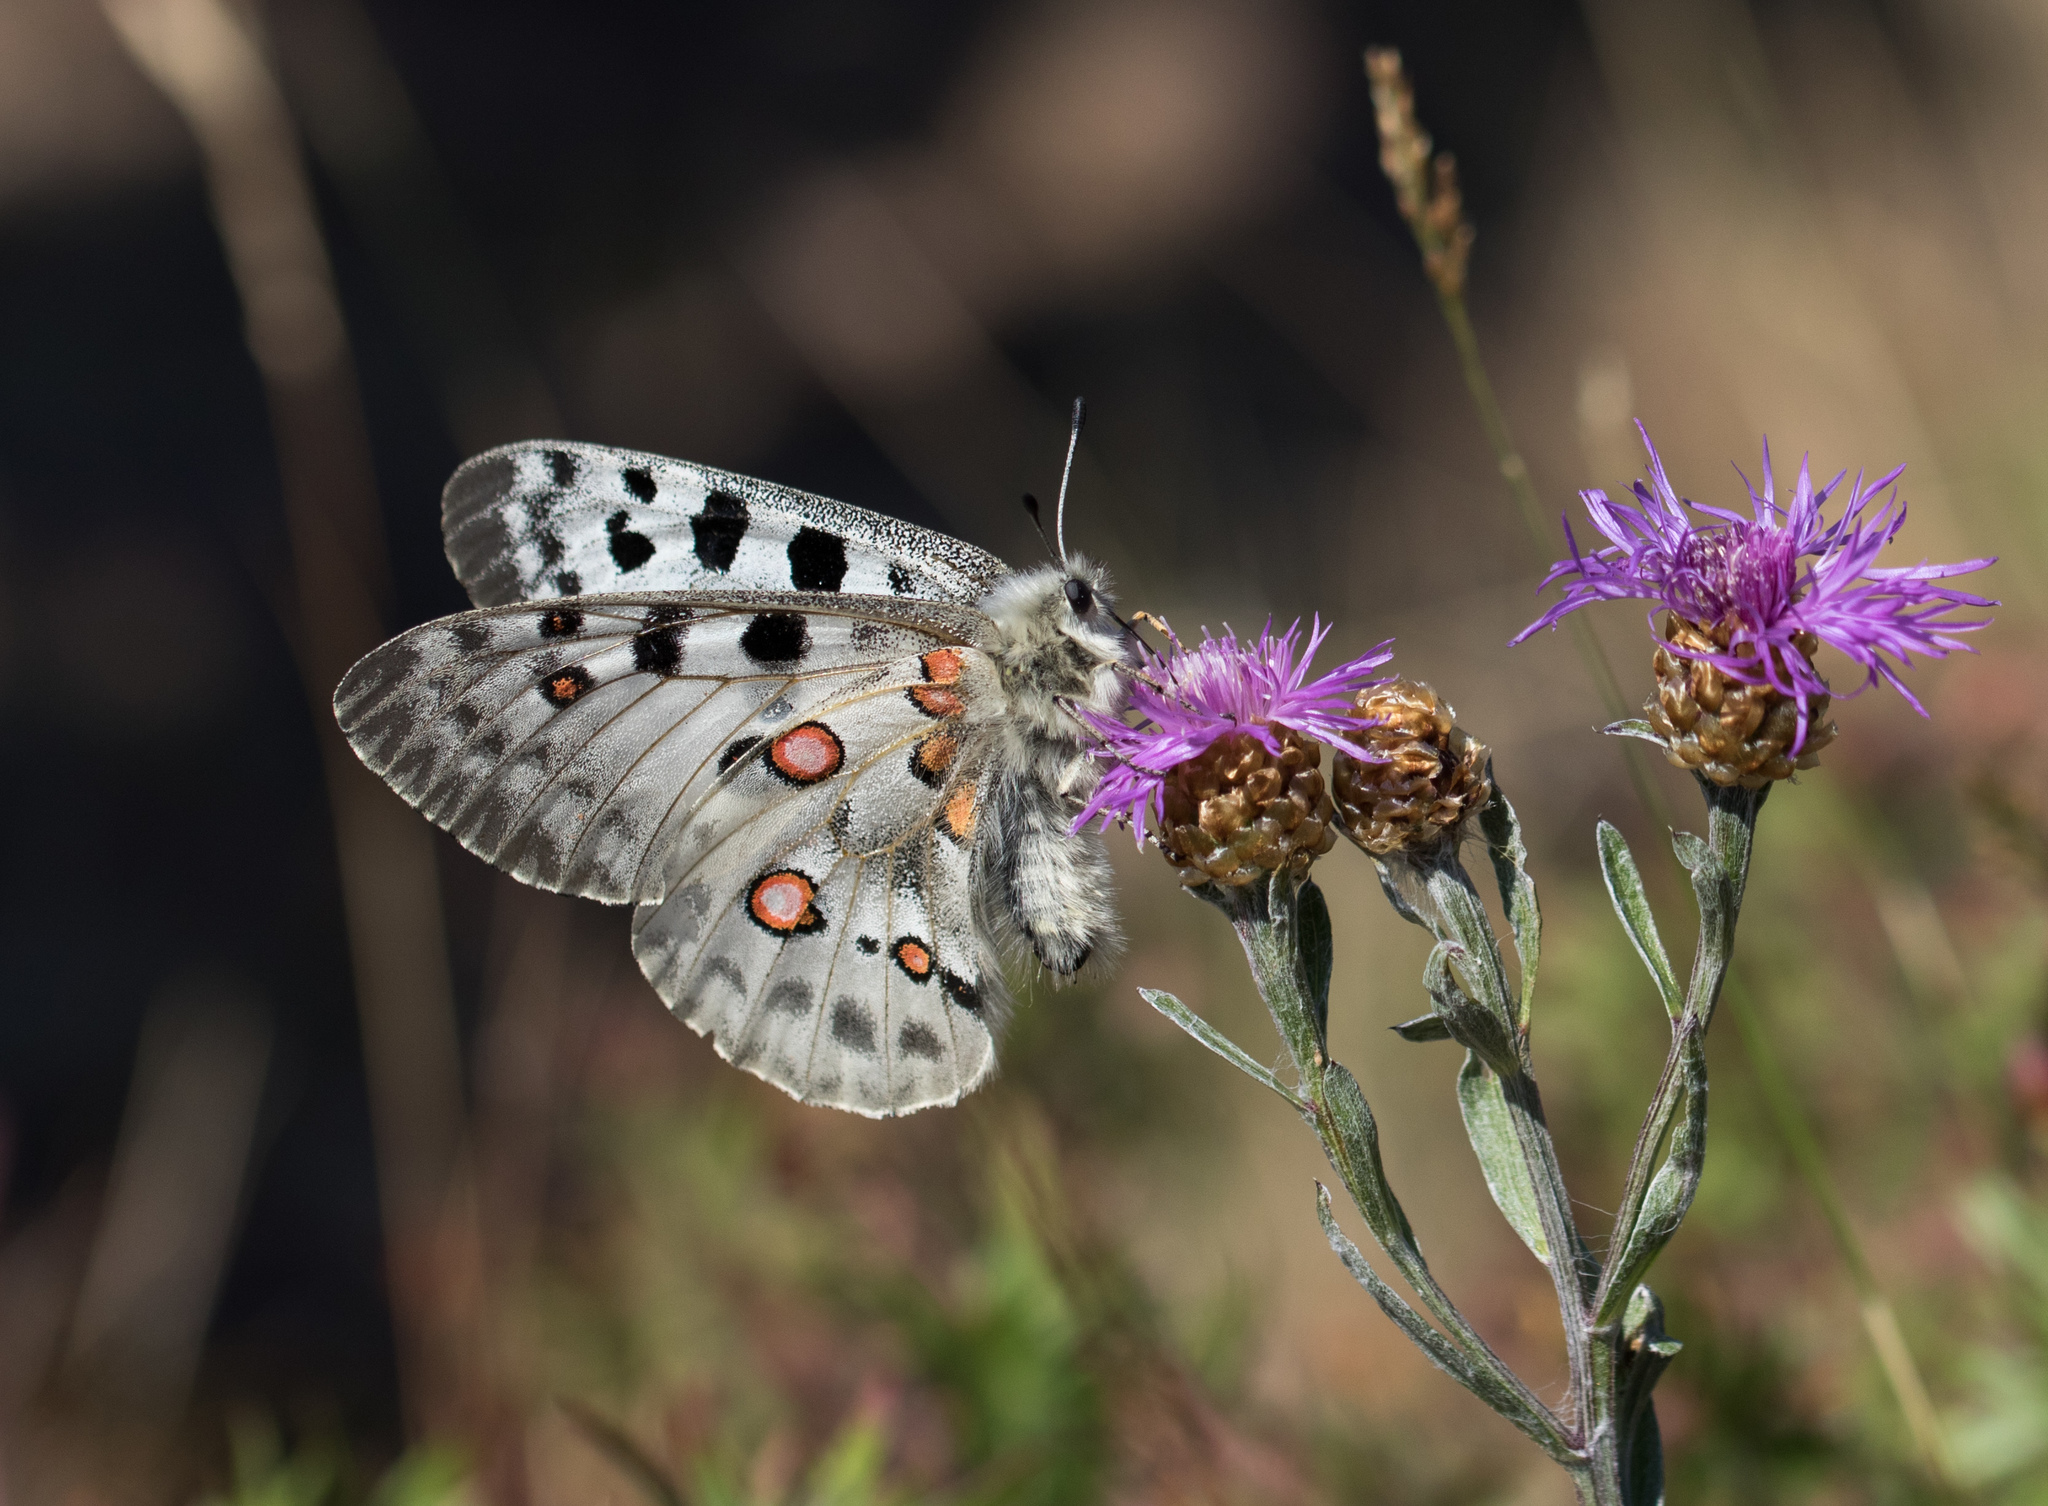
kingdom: Animalia
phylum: Arthropoda
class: Insecta
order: Lepidoptera
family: Papilionidae
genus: Parnassius
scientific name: Parnassius apollo
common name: Apollo
